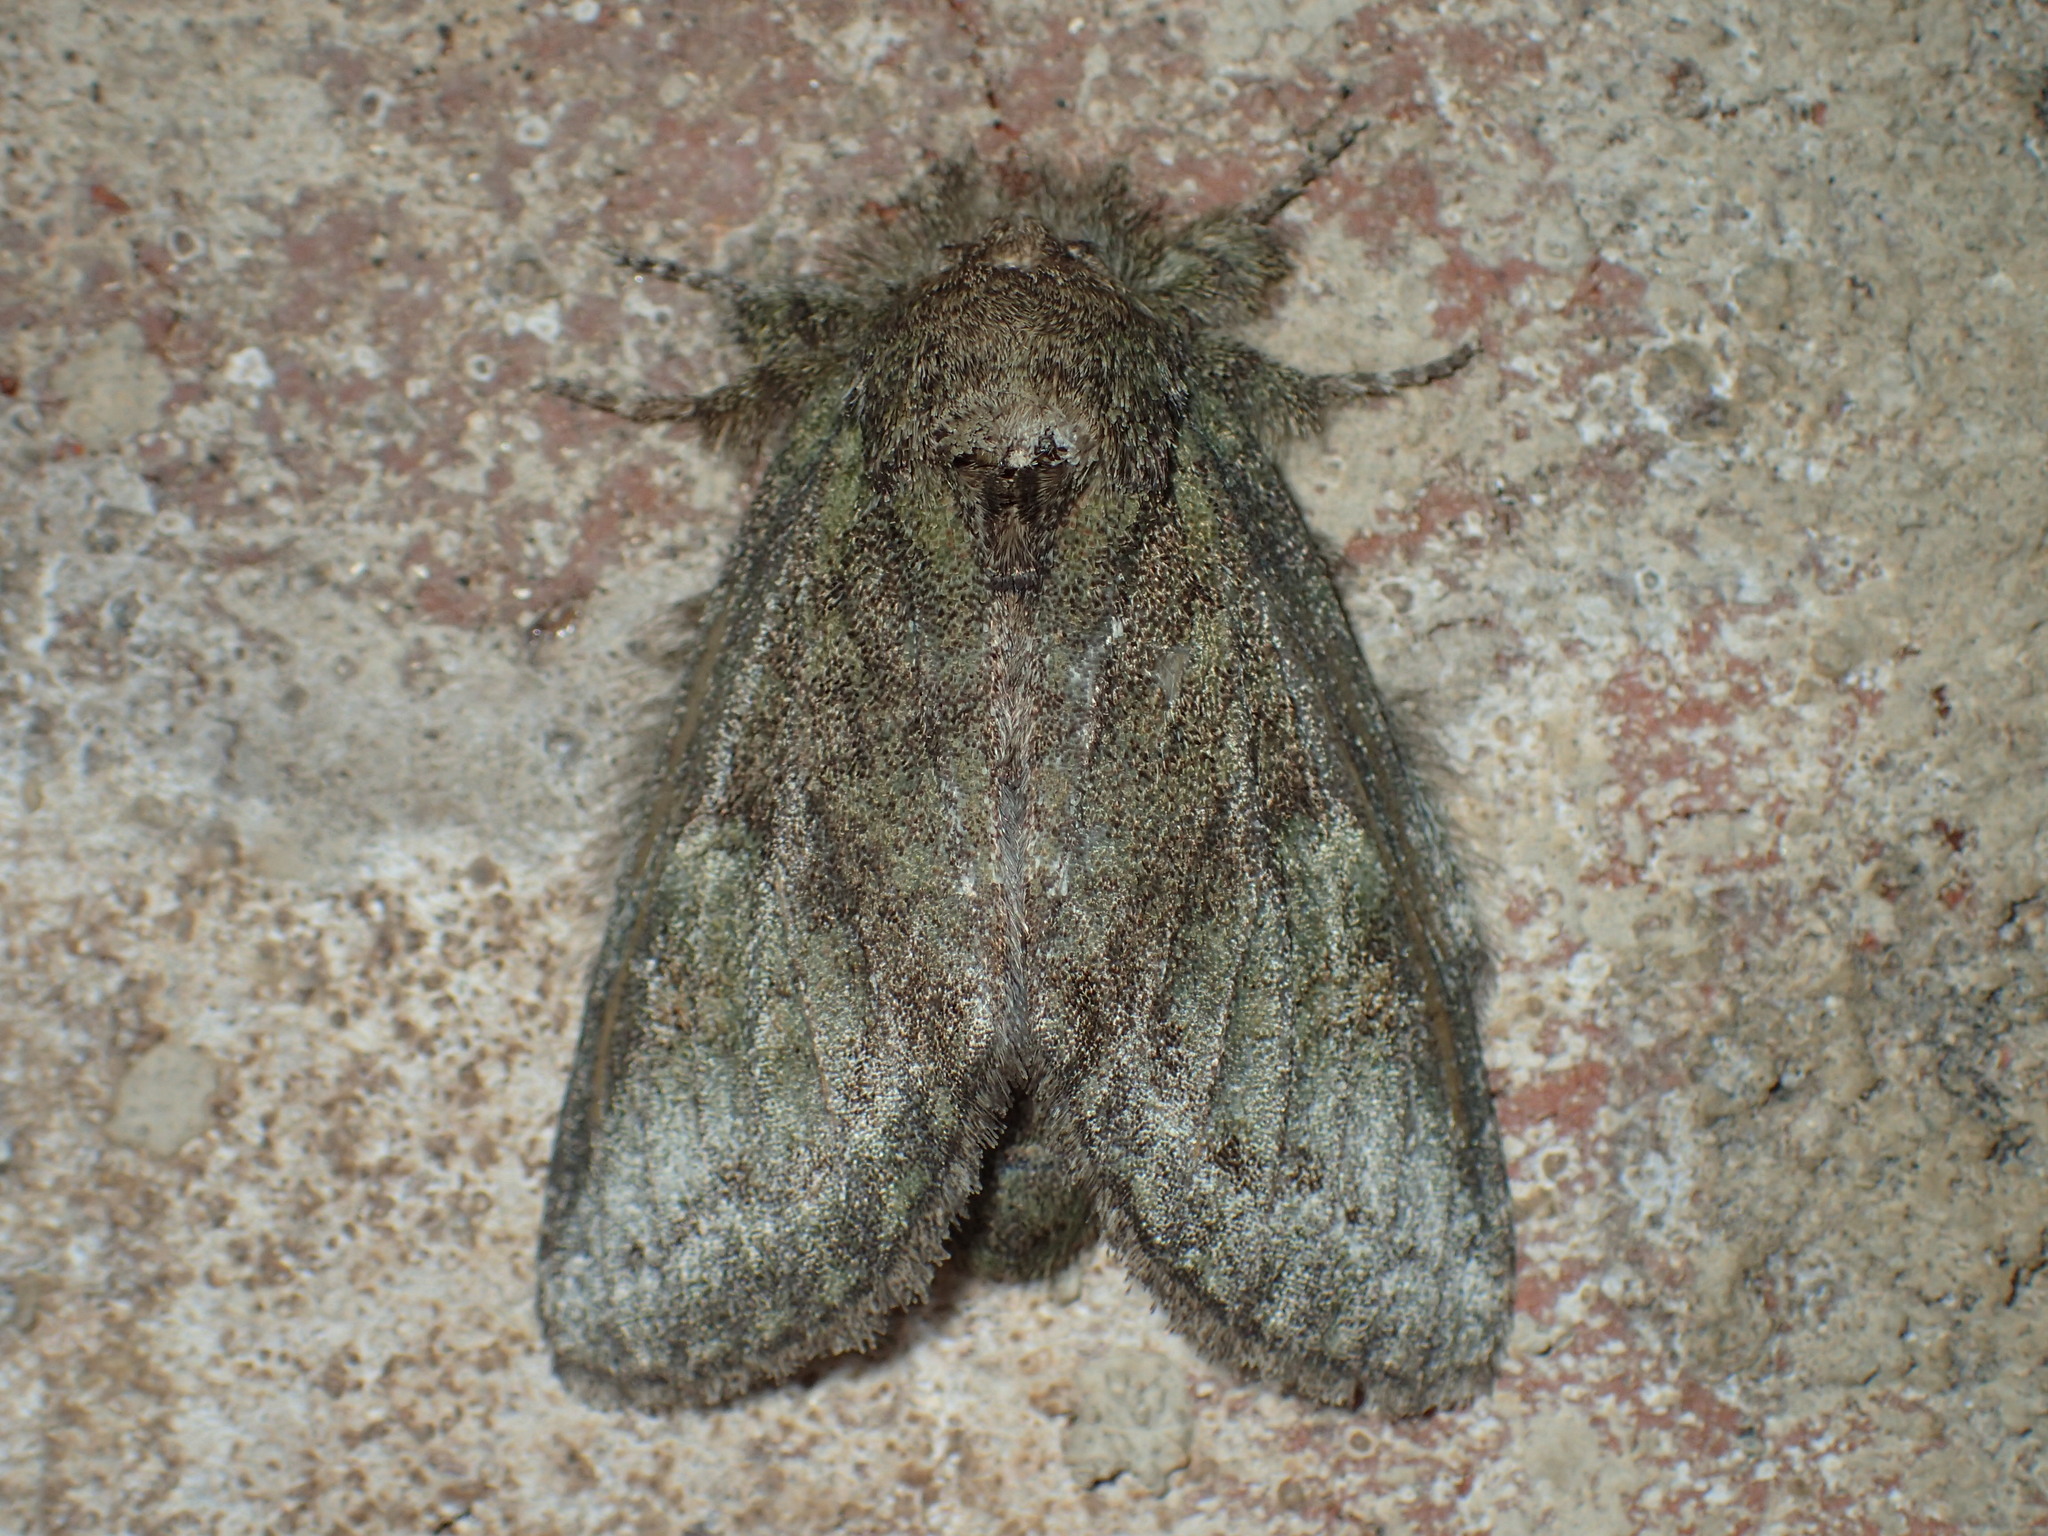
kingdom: Animalia
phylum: Arthropoda
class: Insecta
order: Lepidoptera
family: Notodontidae
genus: Disphragis
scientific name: Disphragis Cecrita guttivitta
